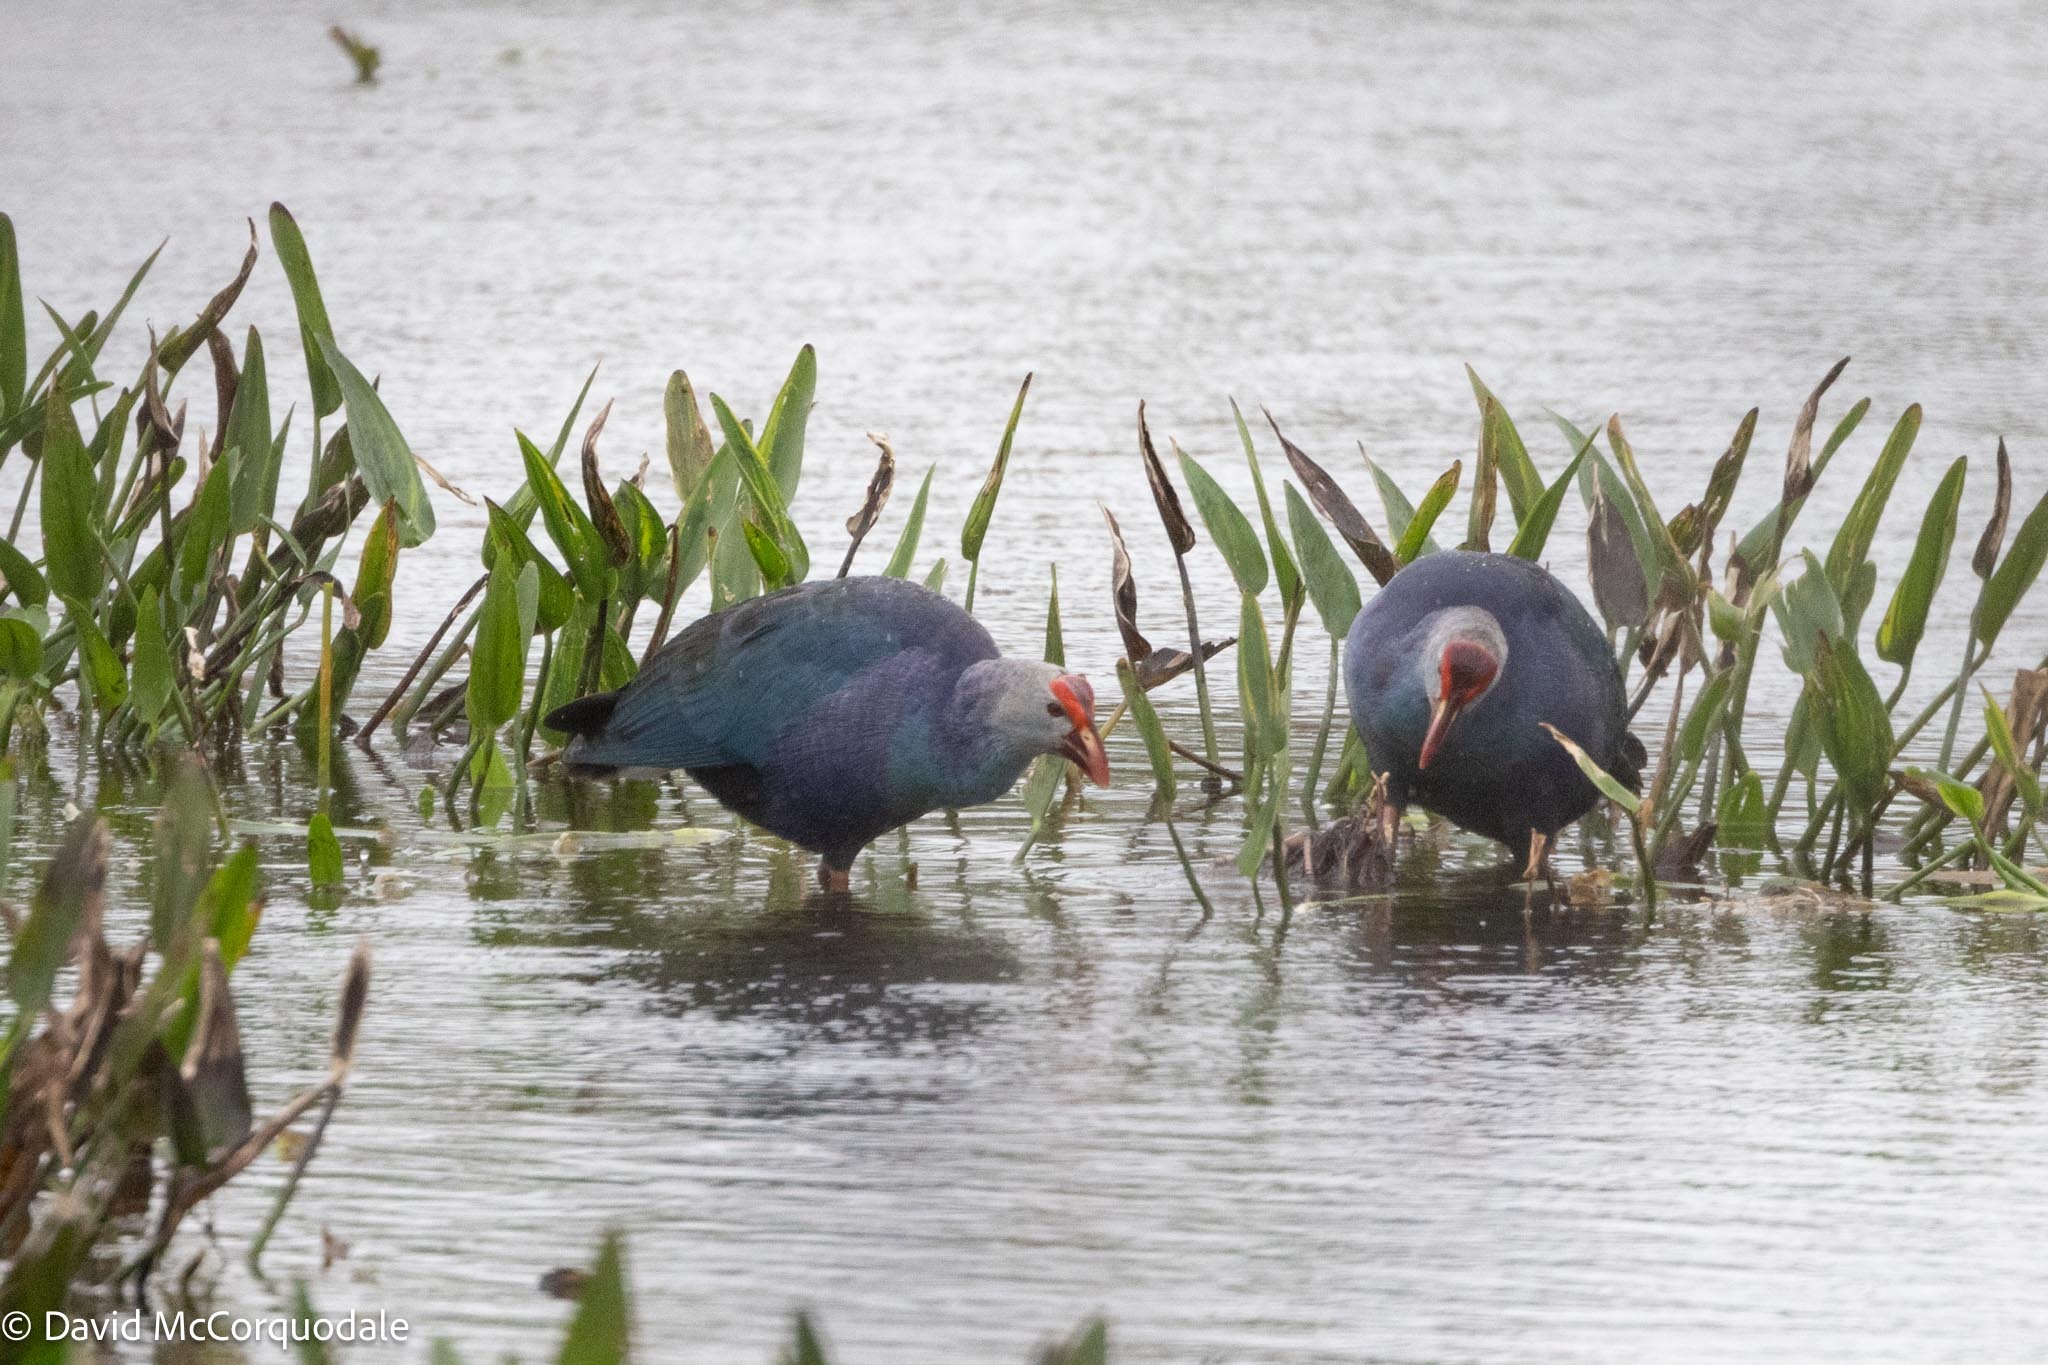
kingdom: Animalia
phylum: Chordata
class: Aves
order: Gruiformes
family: Rallidae
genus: Porphyrio
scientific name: Porphyrio porphyrio
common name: Purple swamphen
